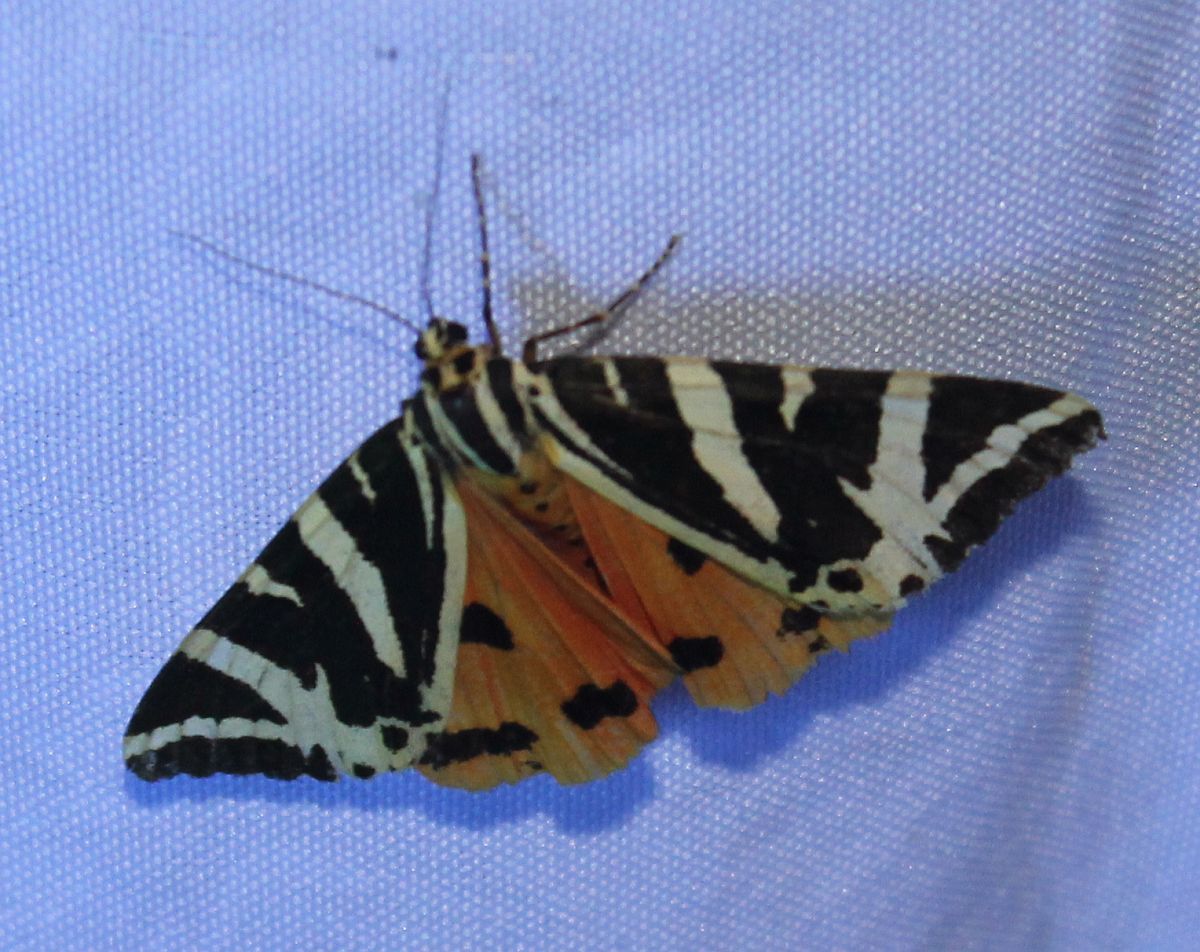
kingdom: Animalia
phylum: Arthropoda
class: Insecta
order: Lepidoptera
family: Erebidae
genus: Euplagia
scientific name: Euplagia quadripunctaria
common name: Jersey tiger
